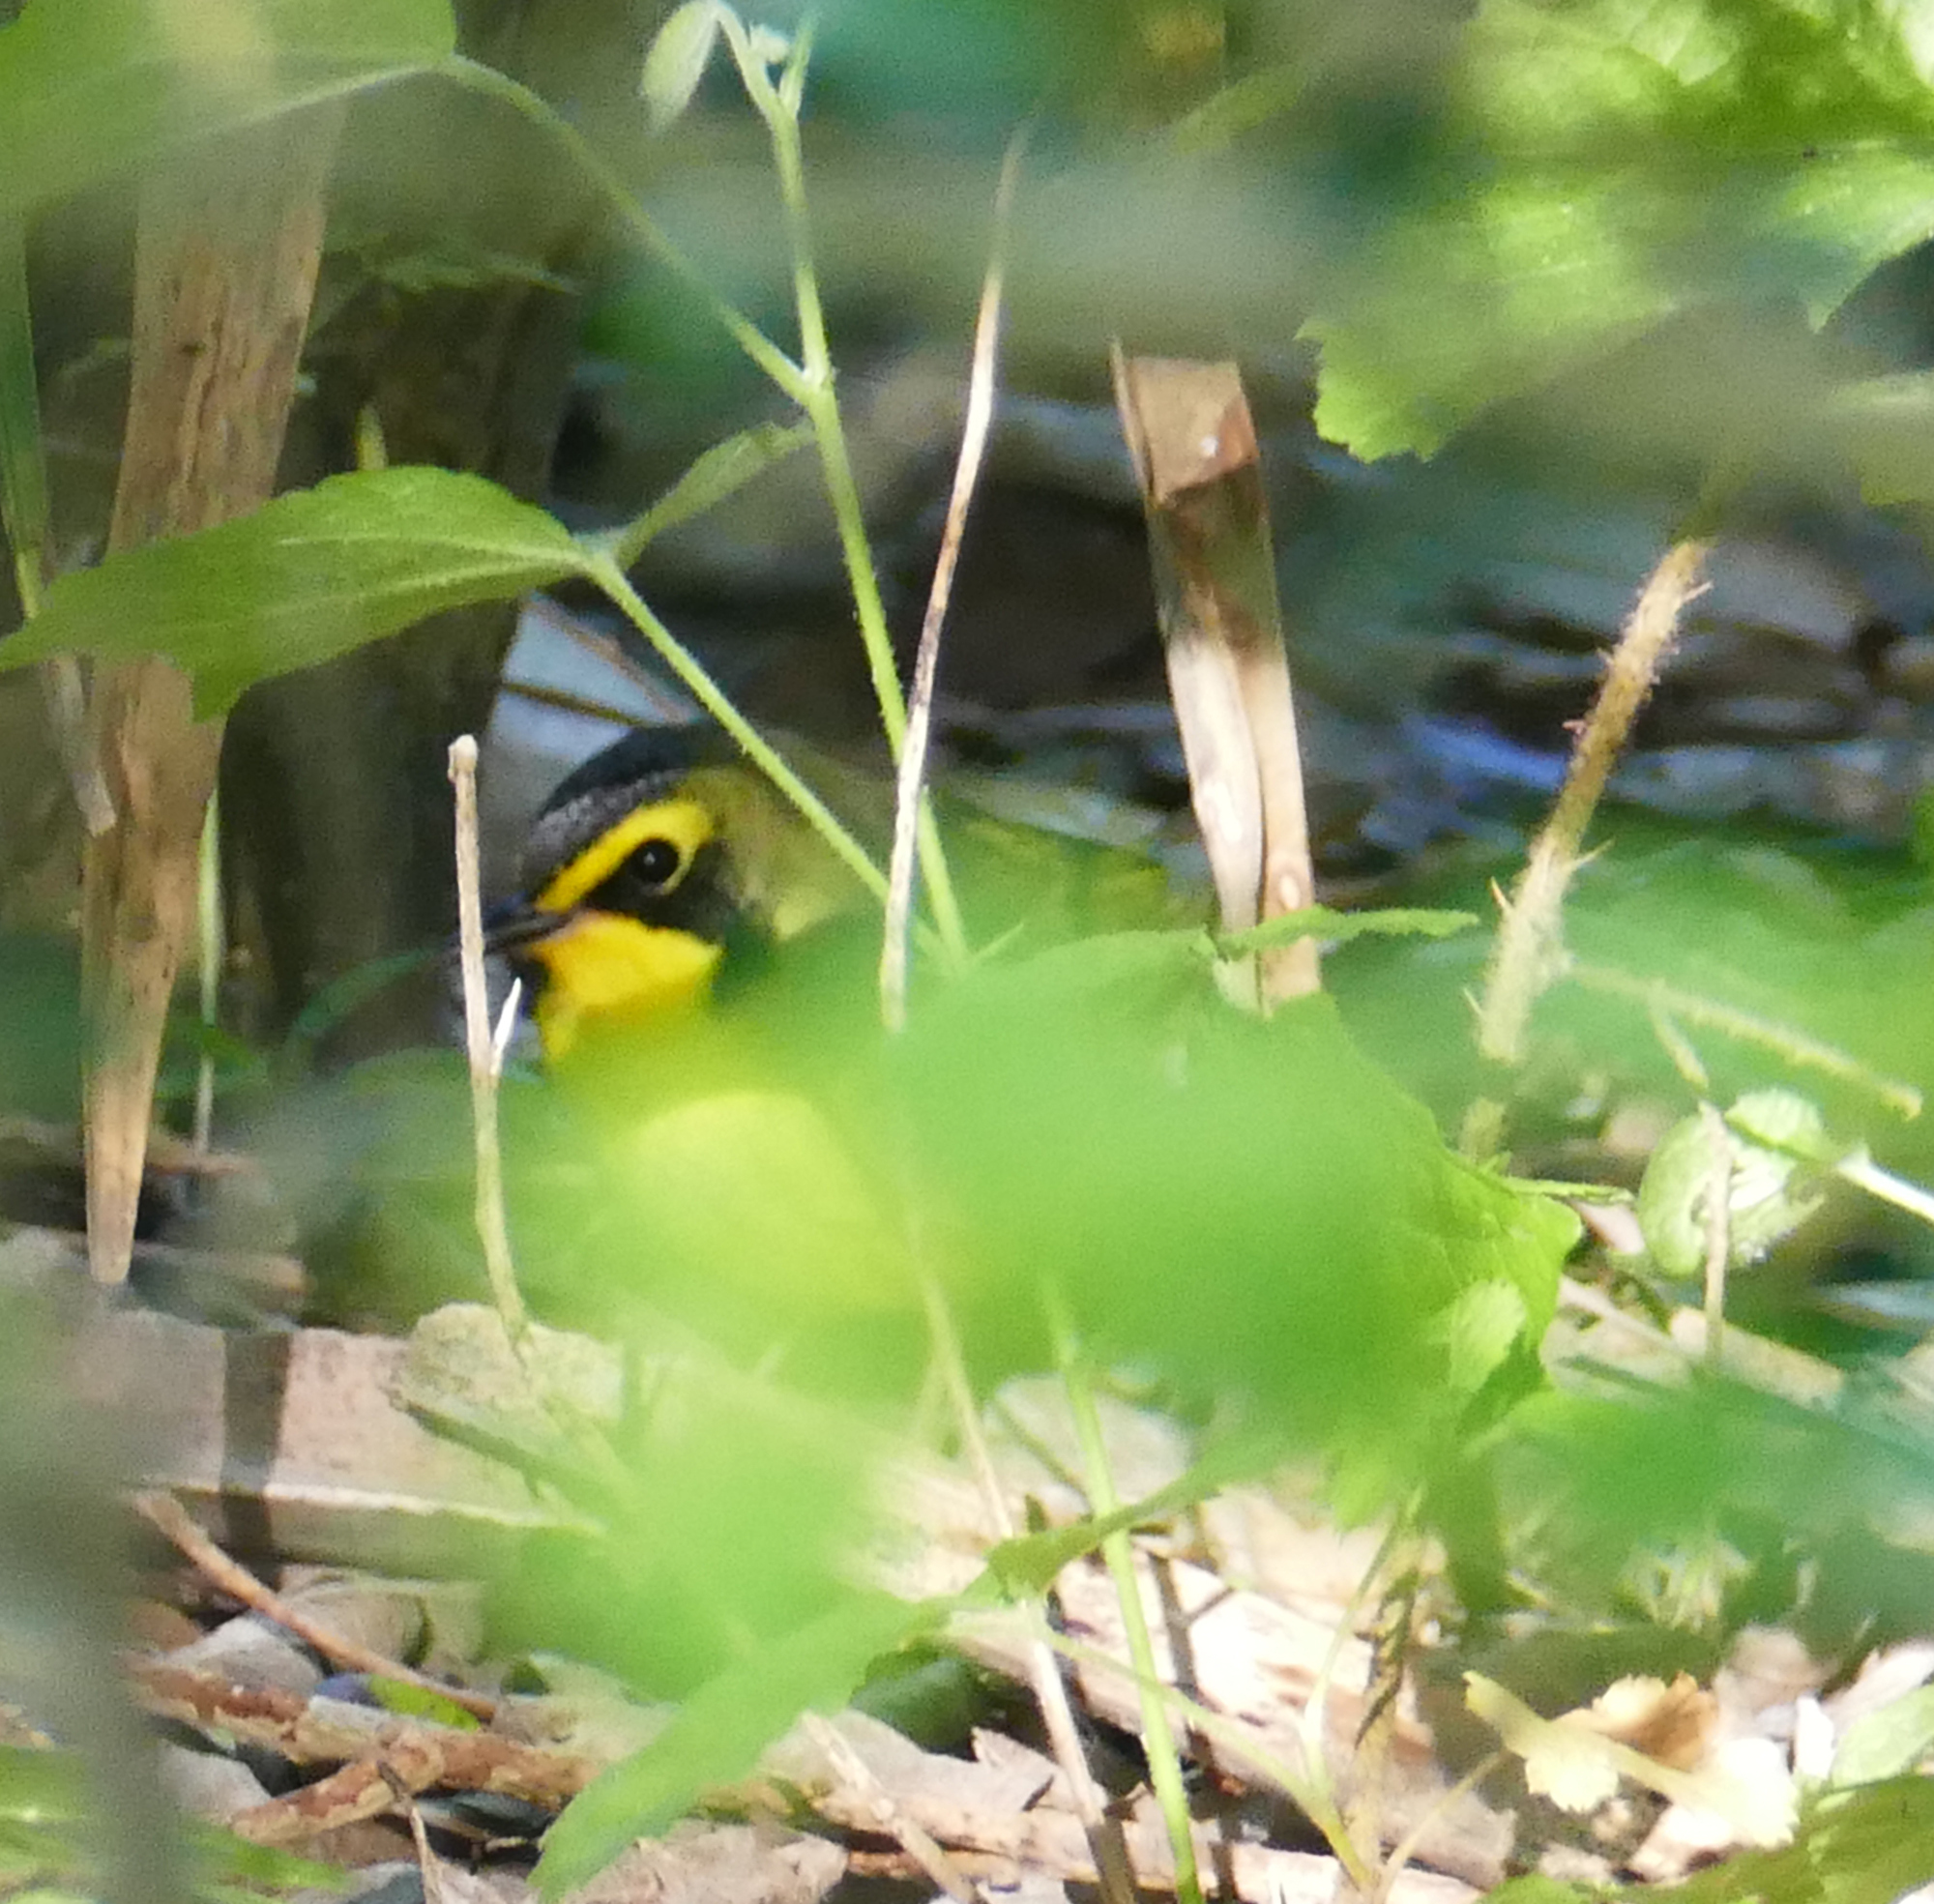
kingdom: Animalia
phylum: Chordata
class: Aves
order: Passeriformes
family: Parulidae
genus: Geothlypis
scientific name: Geothlypis formosa
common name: Kentucky warbler
